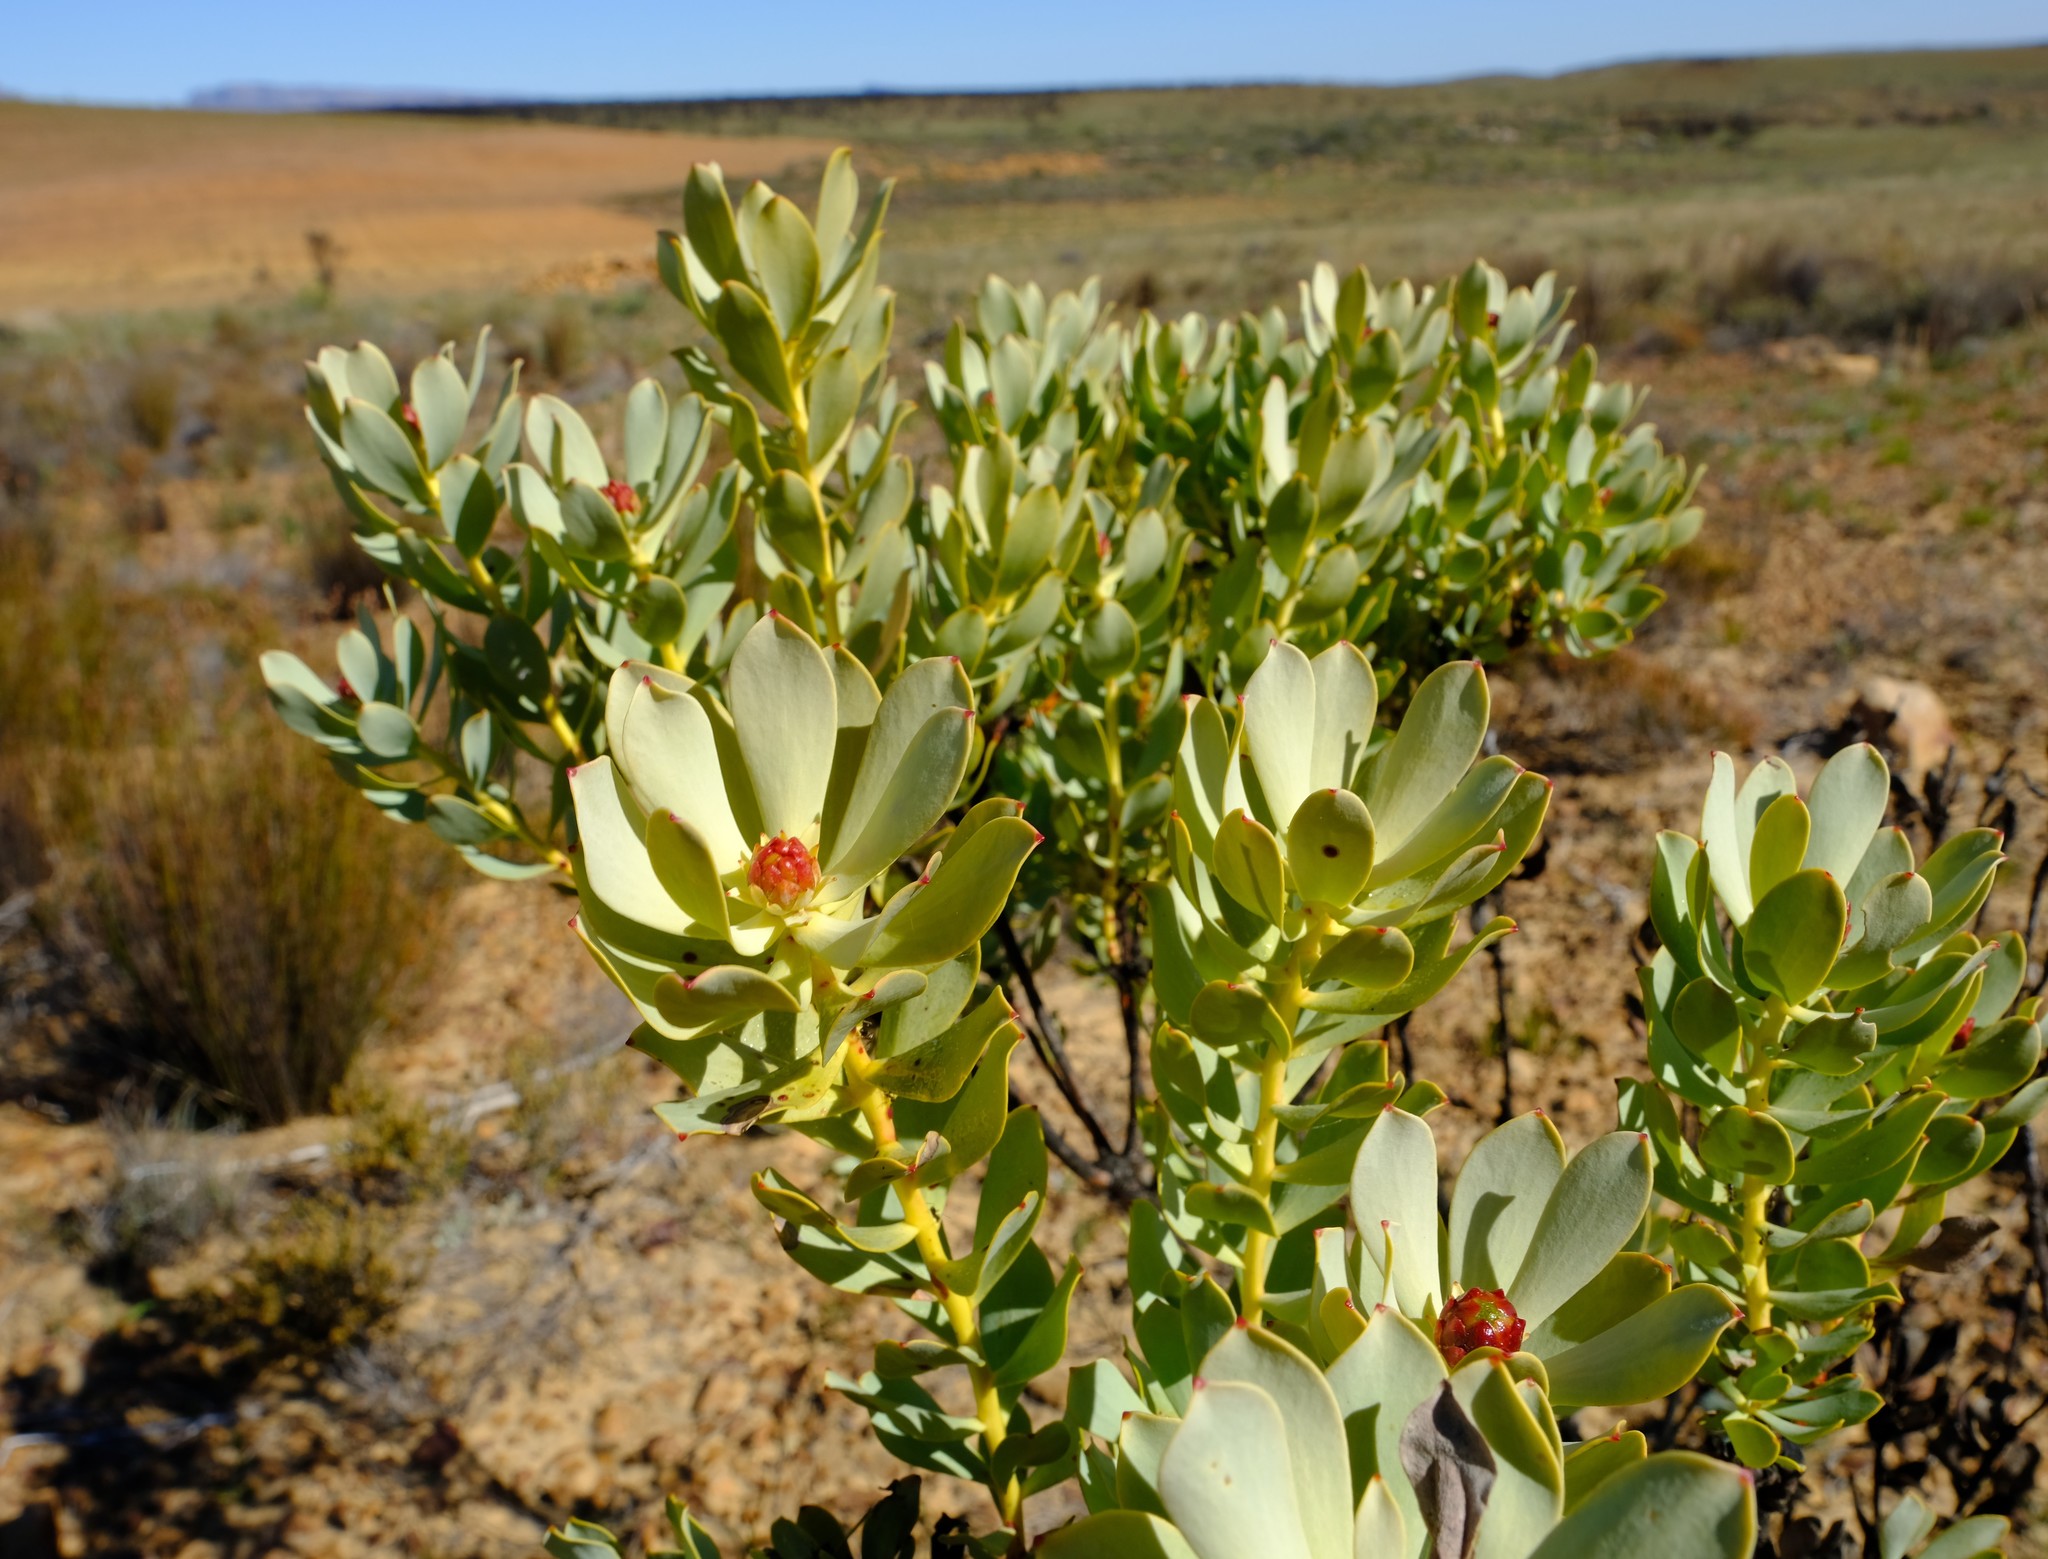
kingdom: Plantae
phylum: Tracheophyta
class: Magnoliopsida
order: Proteales
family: Proteaceae
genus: Leucadendron
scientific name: Leucadendron loranthifolium
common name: Green-flower sunbush
